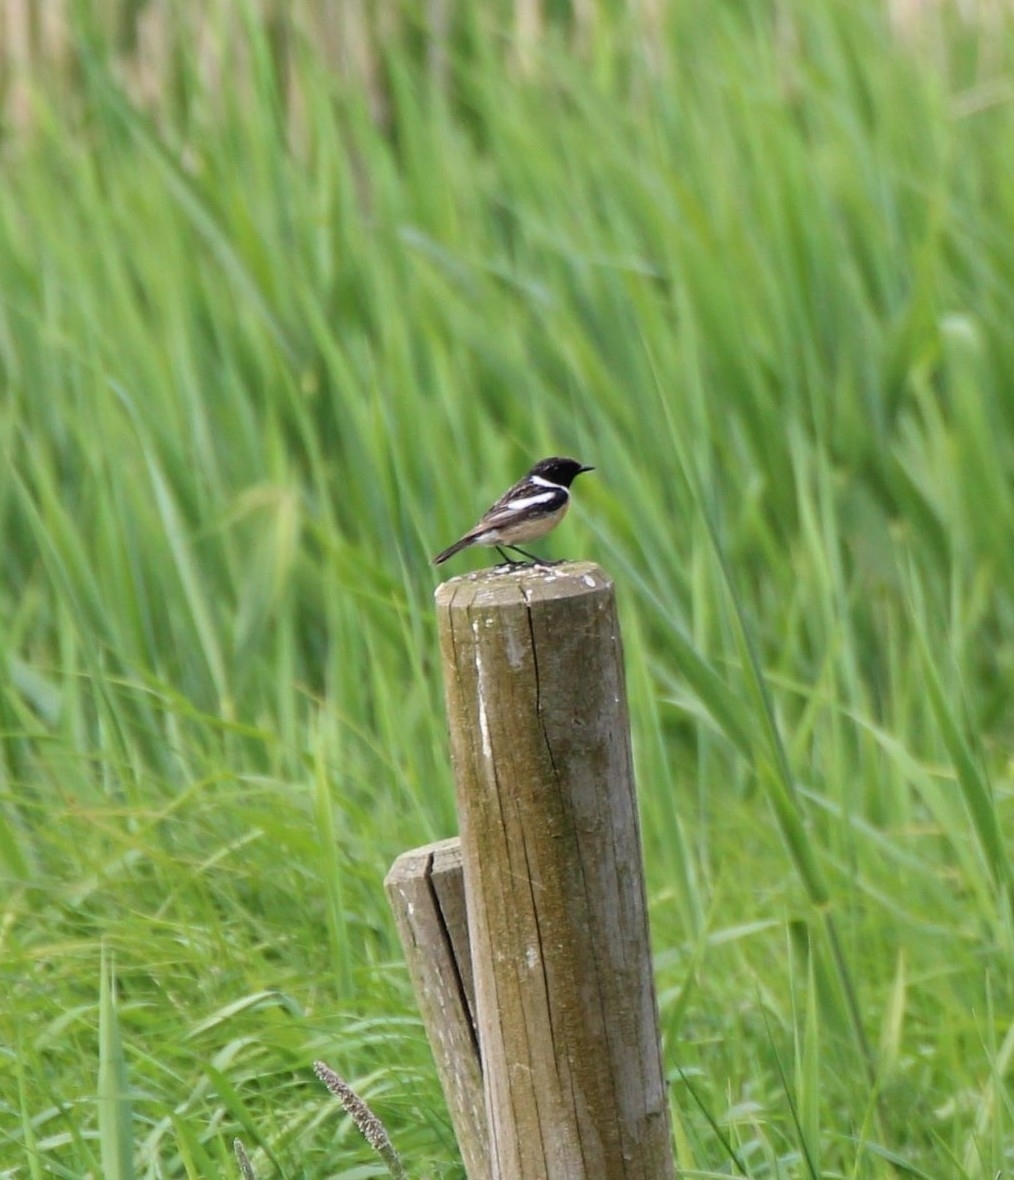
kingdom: Animalia
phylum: Chordata
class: Aves
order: Passeriformes
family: Muscicapidae
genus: Saxicola
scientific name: Saxicola rubicola
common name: European stonechat
